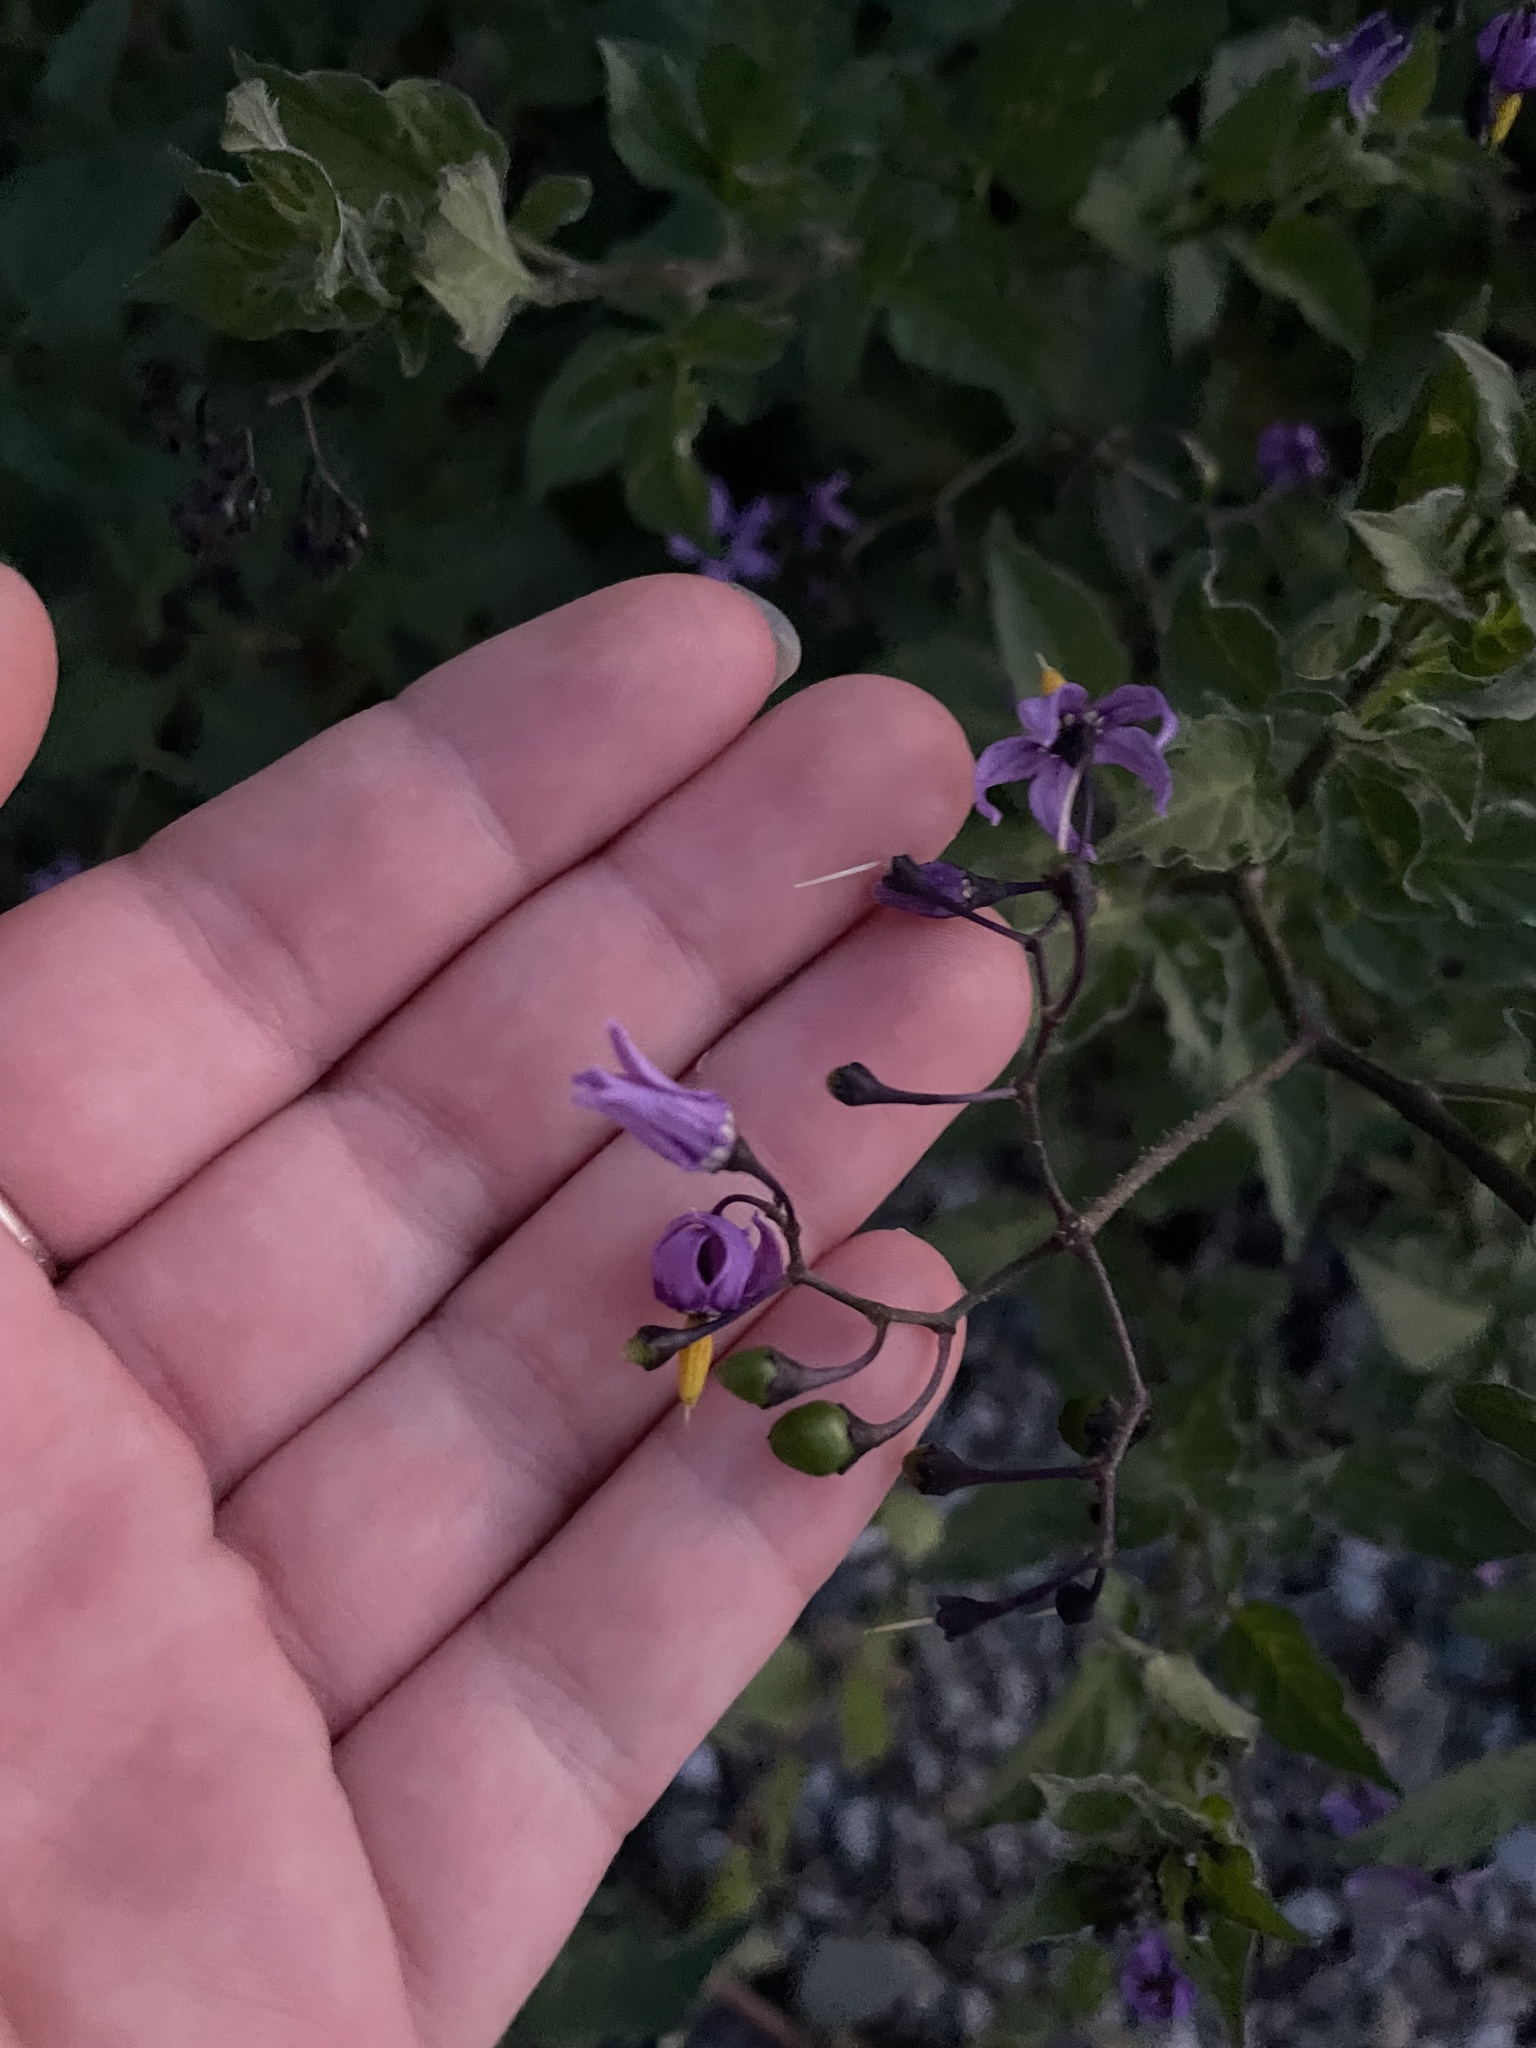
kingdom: Plantae
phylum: Tracheophyta
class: Magnoliopsida
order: Solanales
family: Solanaceae
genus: Solanum
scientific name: Solanum dulcamara
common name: Climbing nightshade
